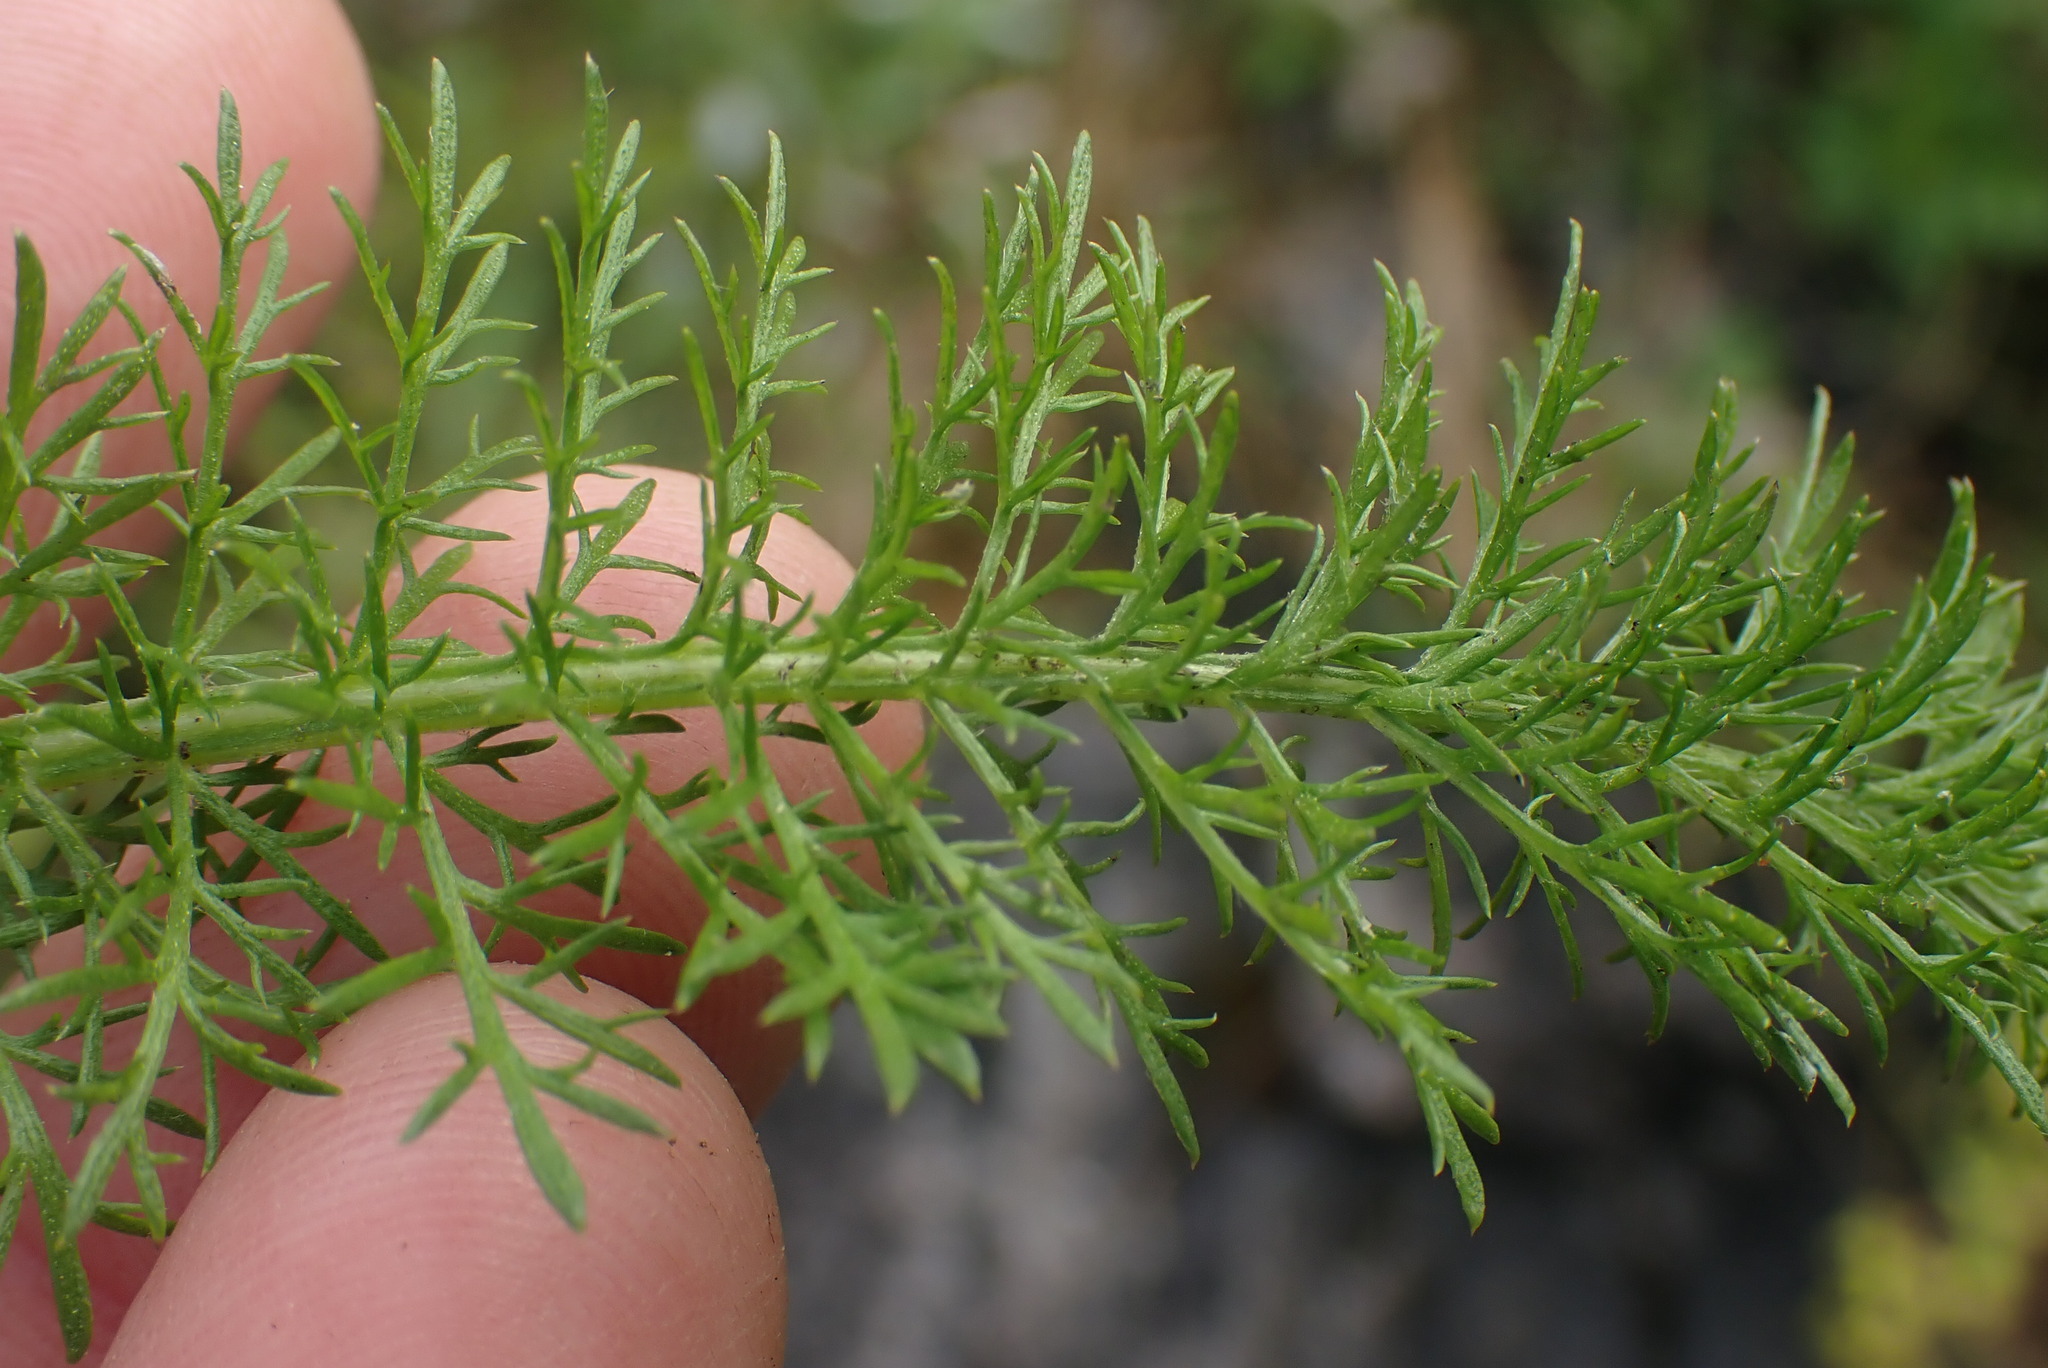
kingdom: Plantae
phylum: Tracheophyta
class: Magnoliopsida
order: Asterales
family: Asteraceae
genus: Achillea
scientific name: Achillea millefolium
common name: Yarrow
